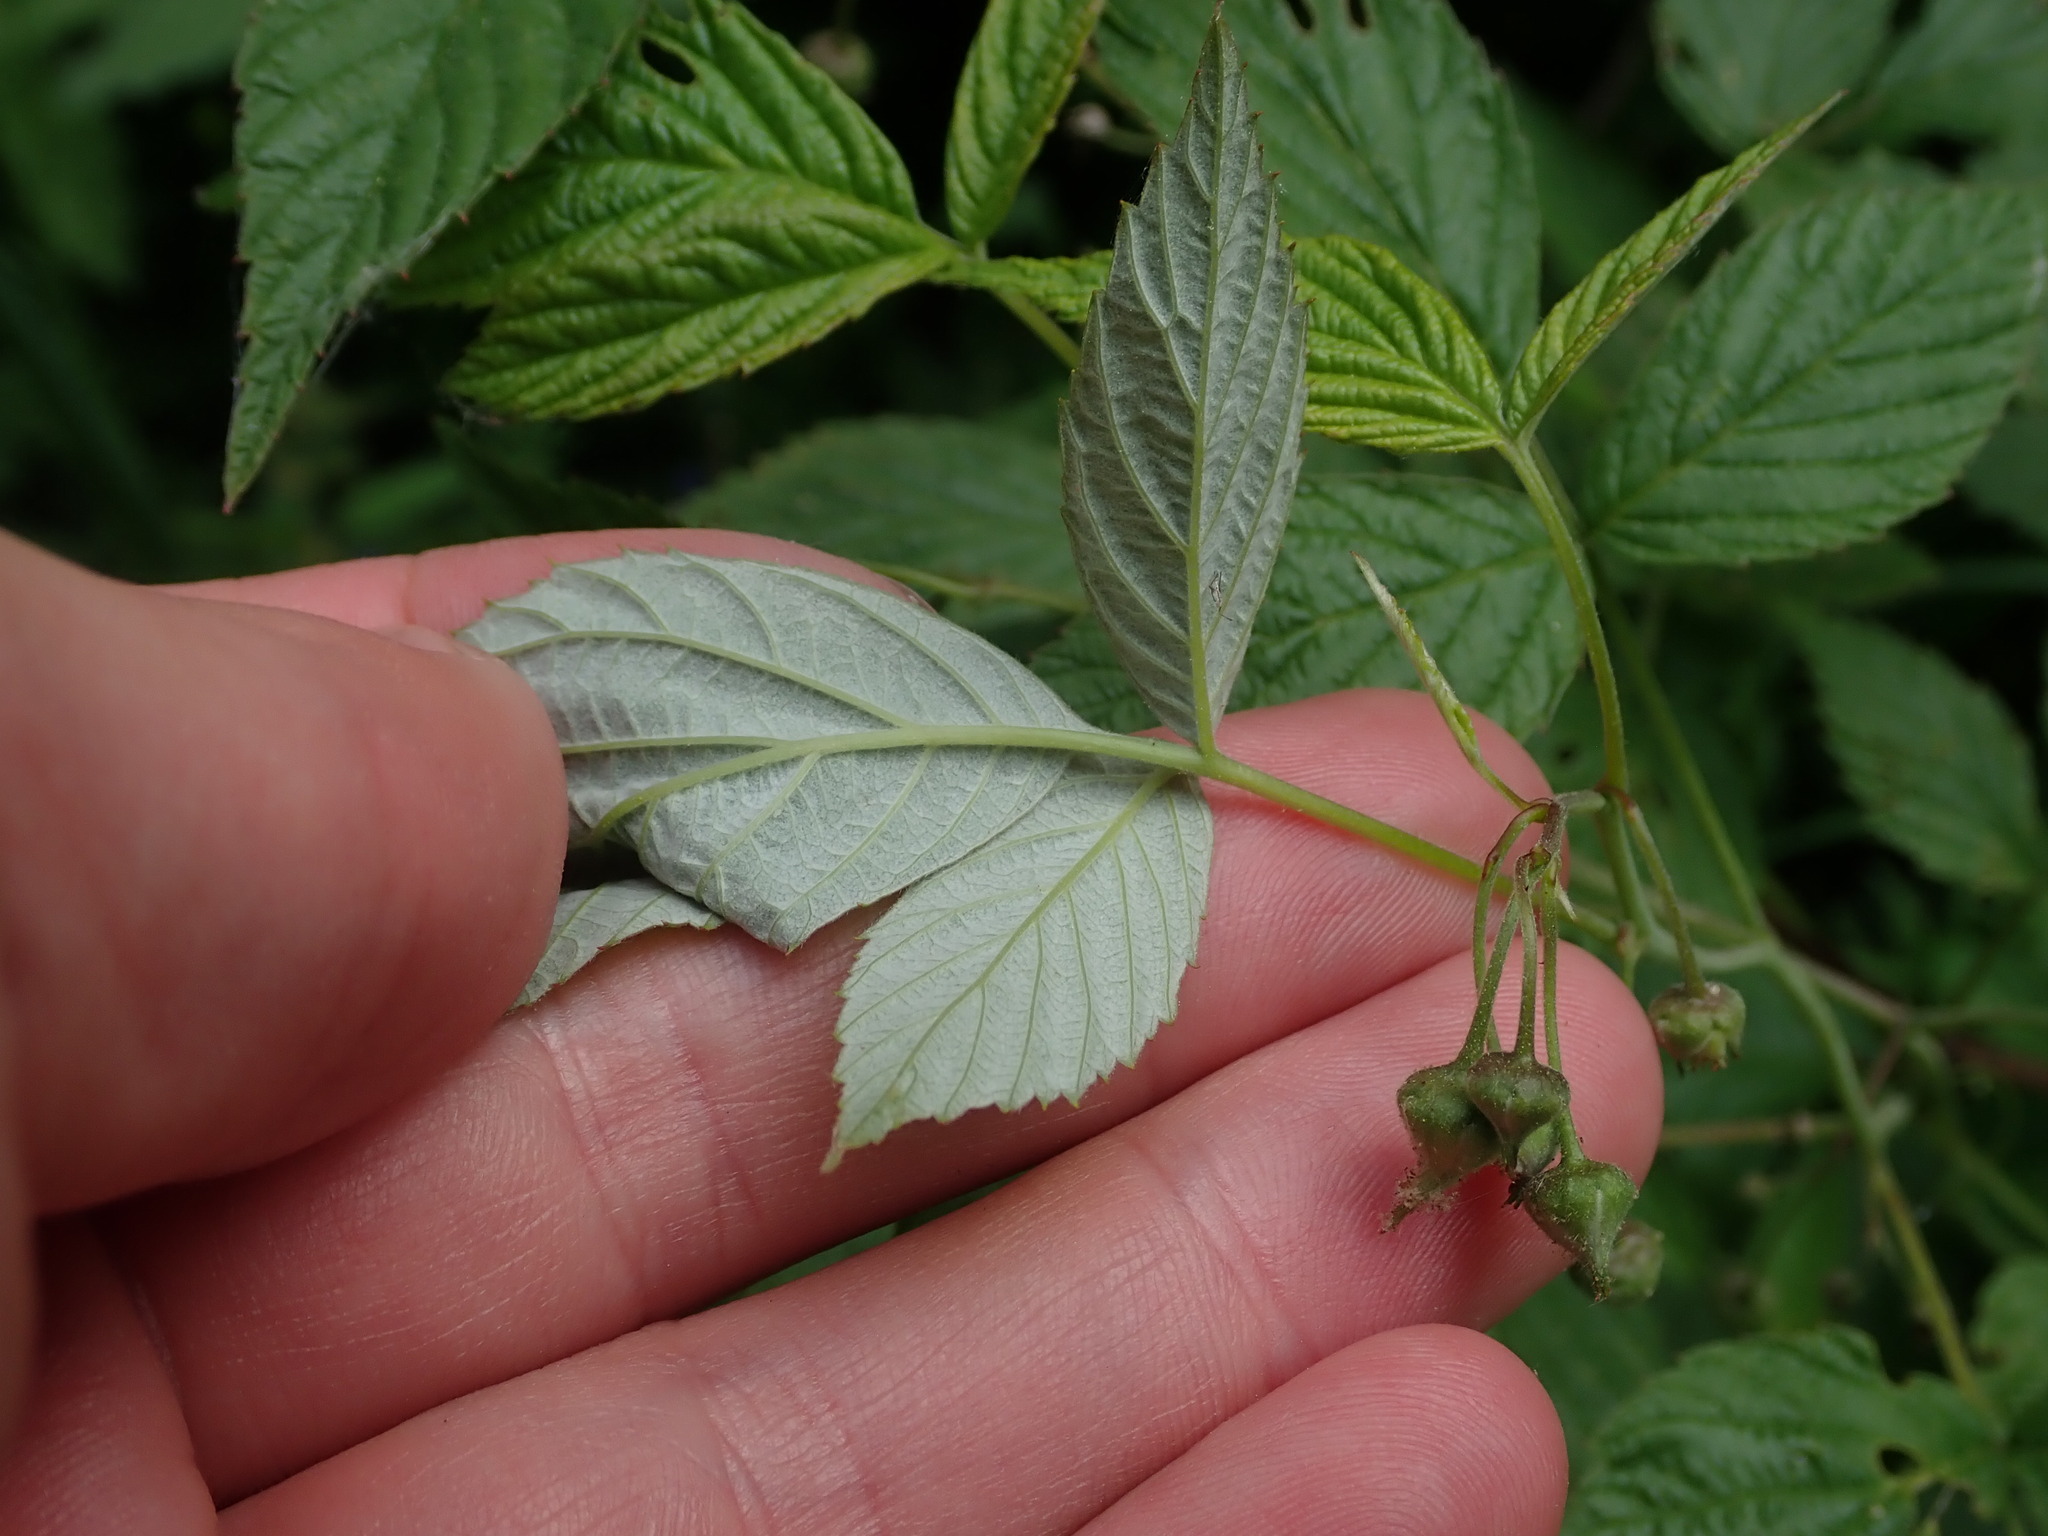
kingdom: Plantae
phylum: Tracheophyta
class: Magnoliopsida
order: Rosales
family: Rosaceae
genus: Rubus
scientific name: Rubus idaeus
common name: Raspberry
